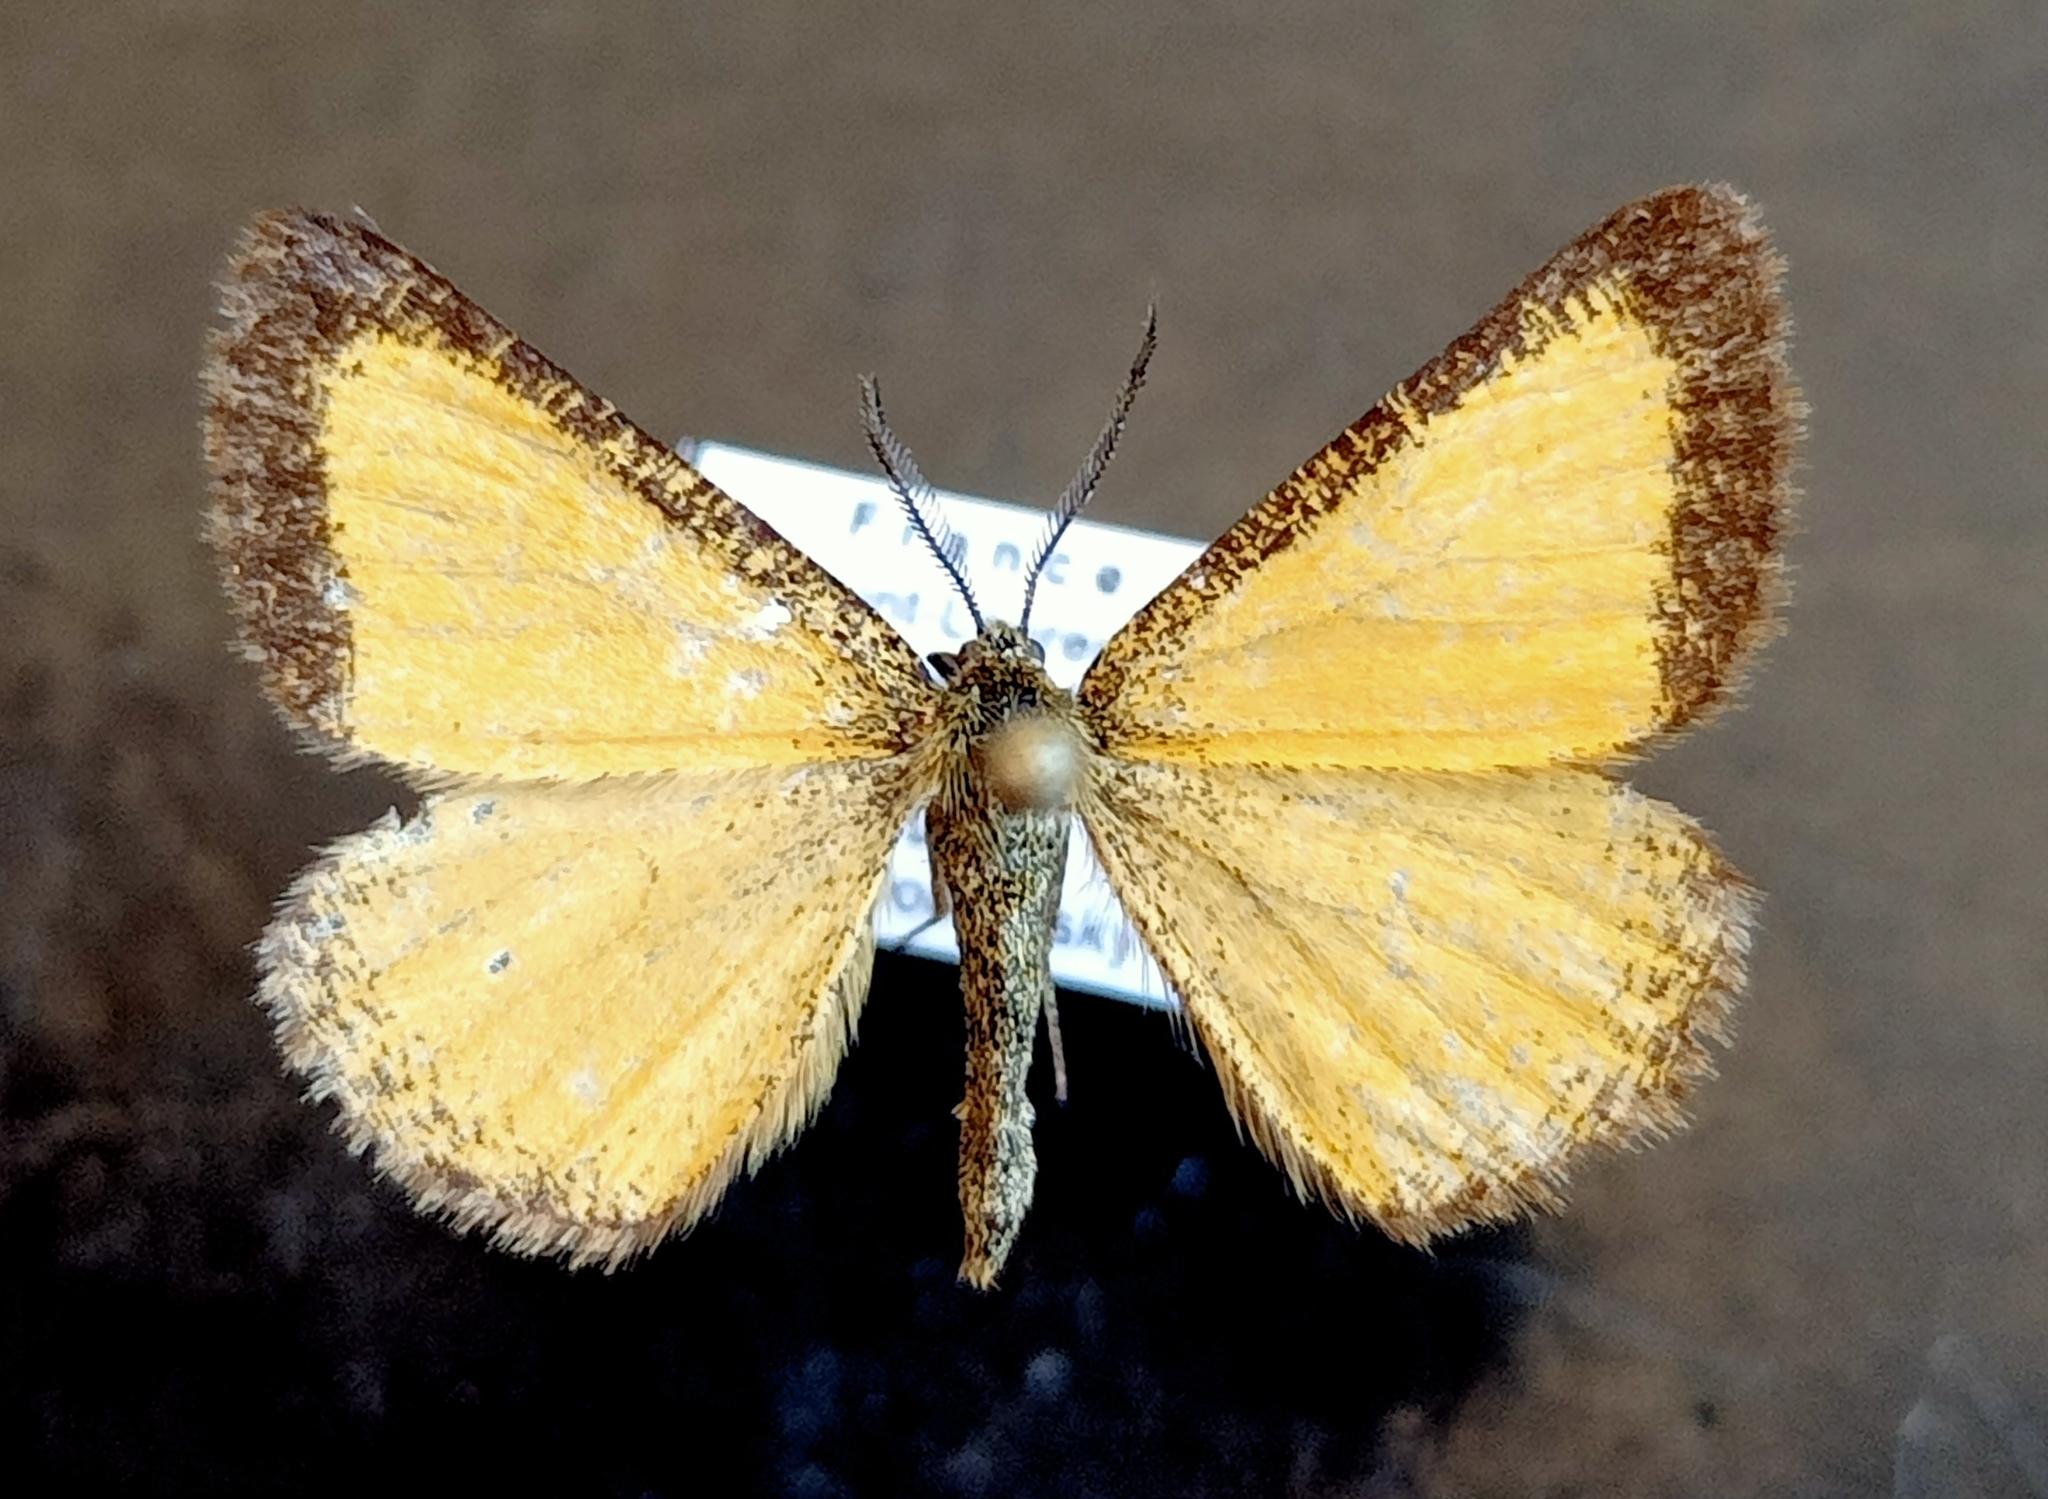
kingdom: Animalia
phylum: Arthropoda
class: Insecta
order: Lepidoptera
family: Geometridae
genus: Isturgia
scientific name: Isturgia limbaria
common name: Frosted yellow
